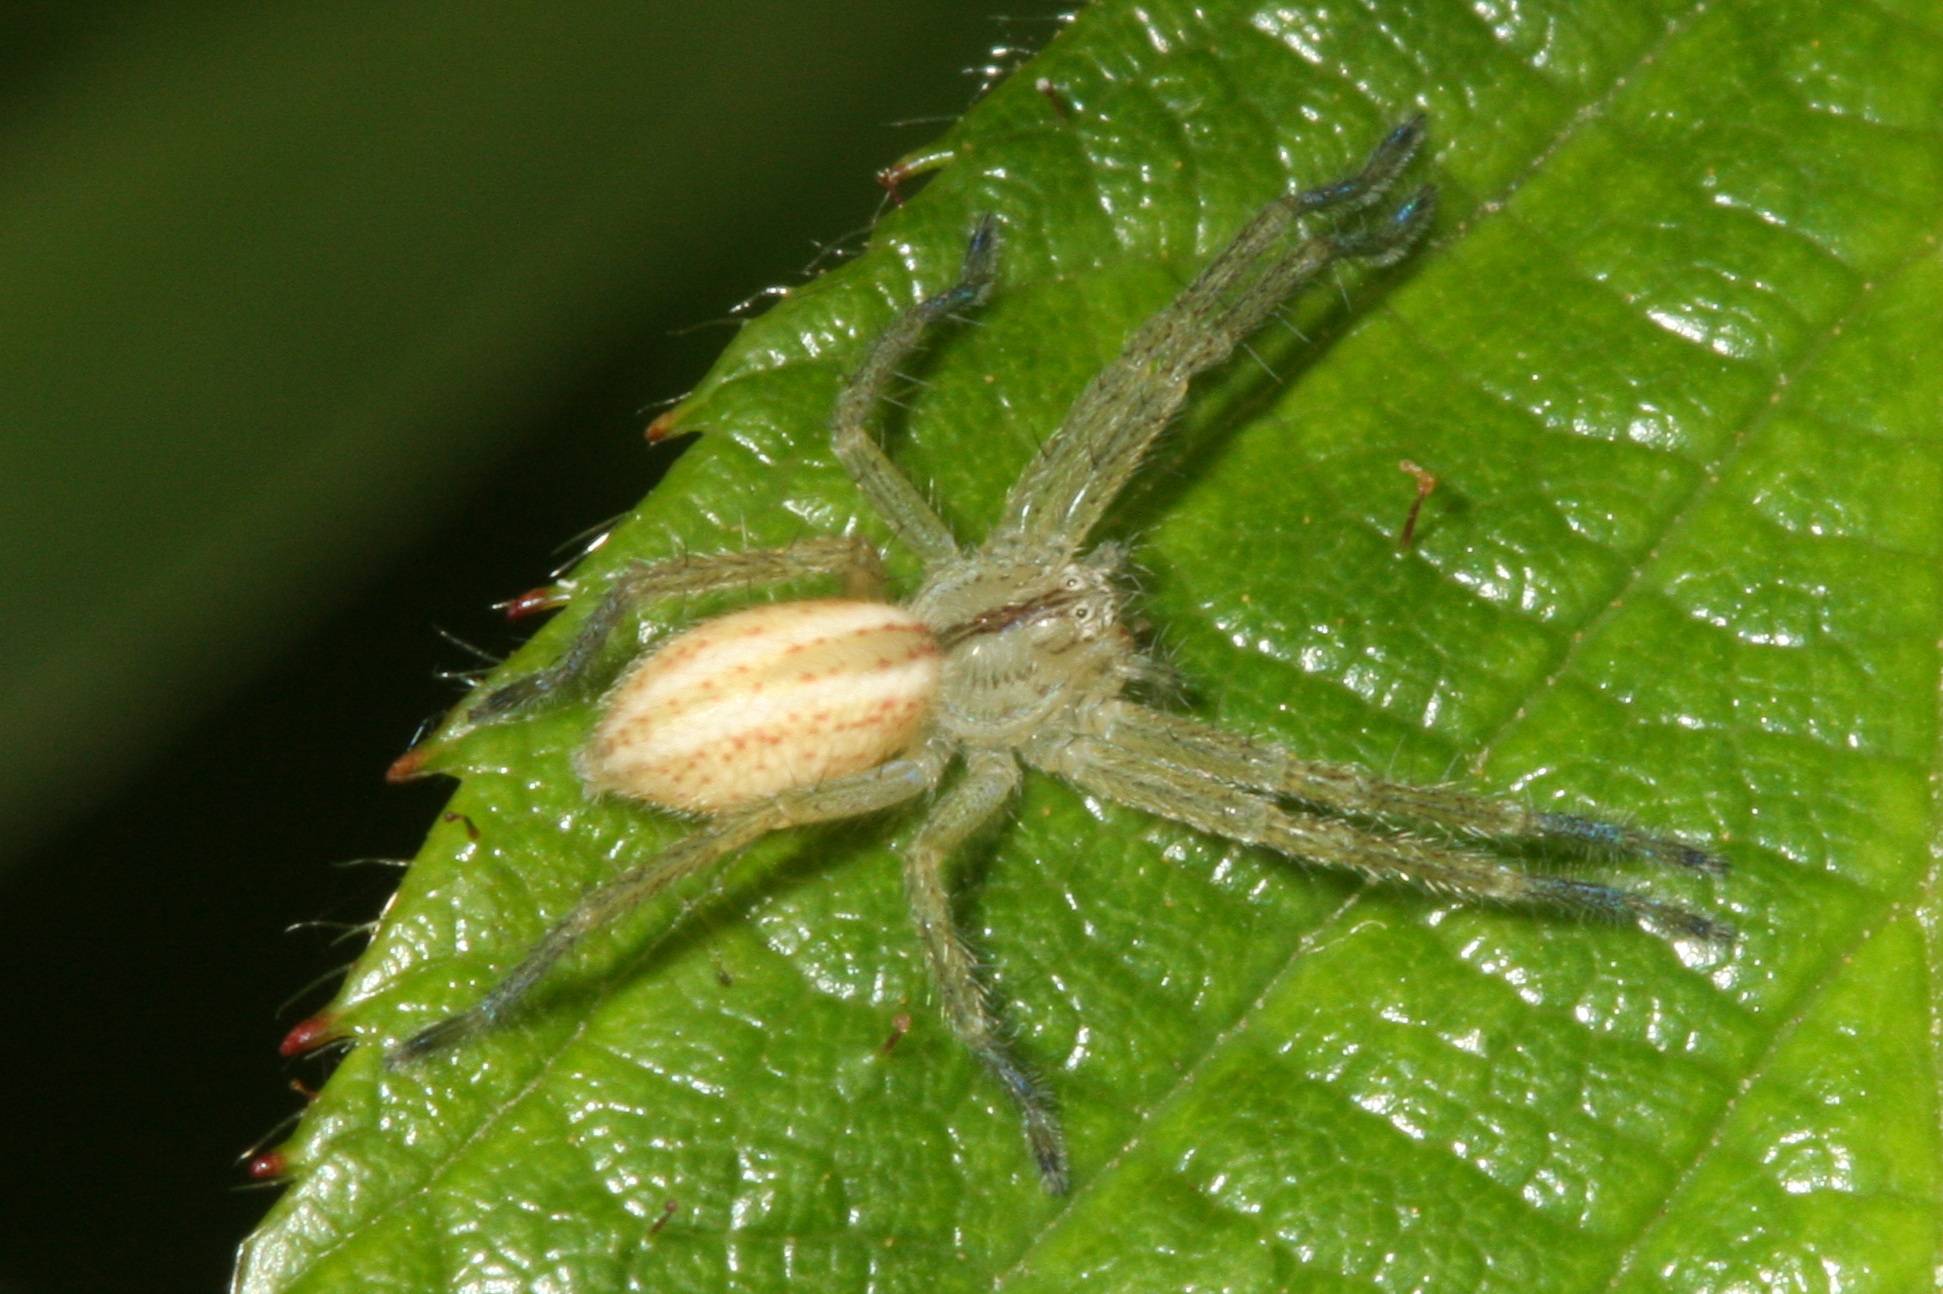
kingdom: Animalia
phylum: Arthropoda
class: Arachnida
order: Araneae
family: Sparassidae
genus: Micrommata
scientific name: Micrommata virescens
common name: Green spider
